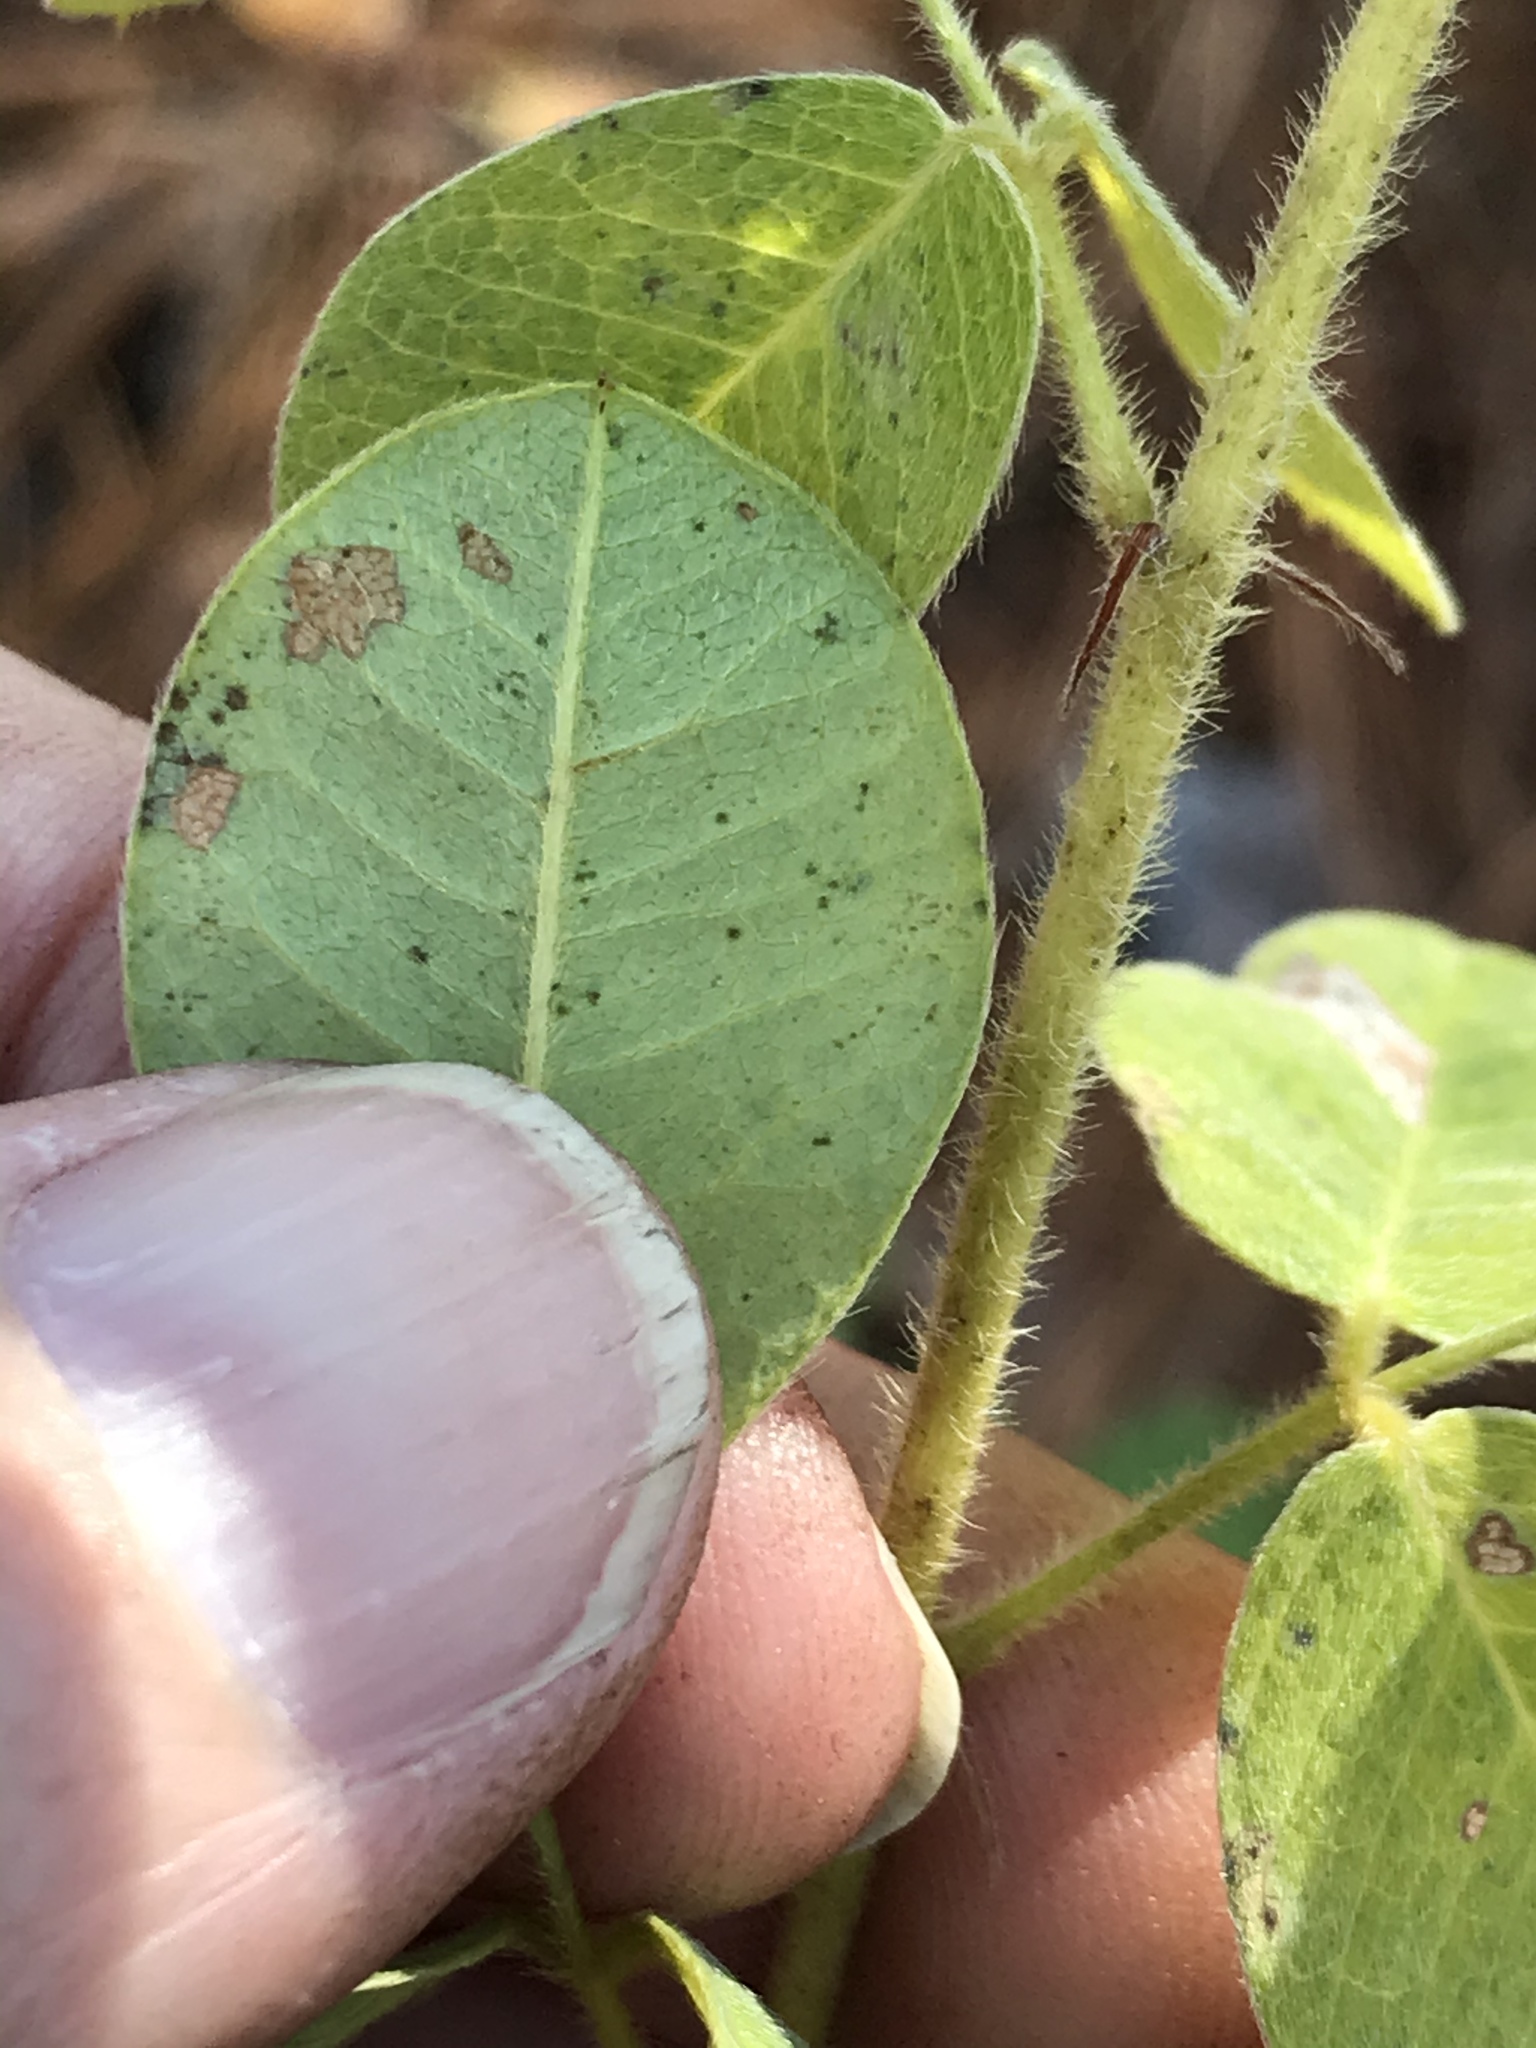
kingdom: Plantae
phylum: Tracheophyta
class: Magnoliopsida
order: Fabales
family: Fabaceae
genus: Lespedeza
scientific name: Lespedeza hirta
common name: Hairy lespedeza
